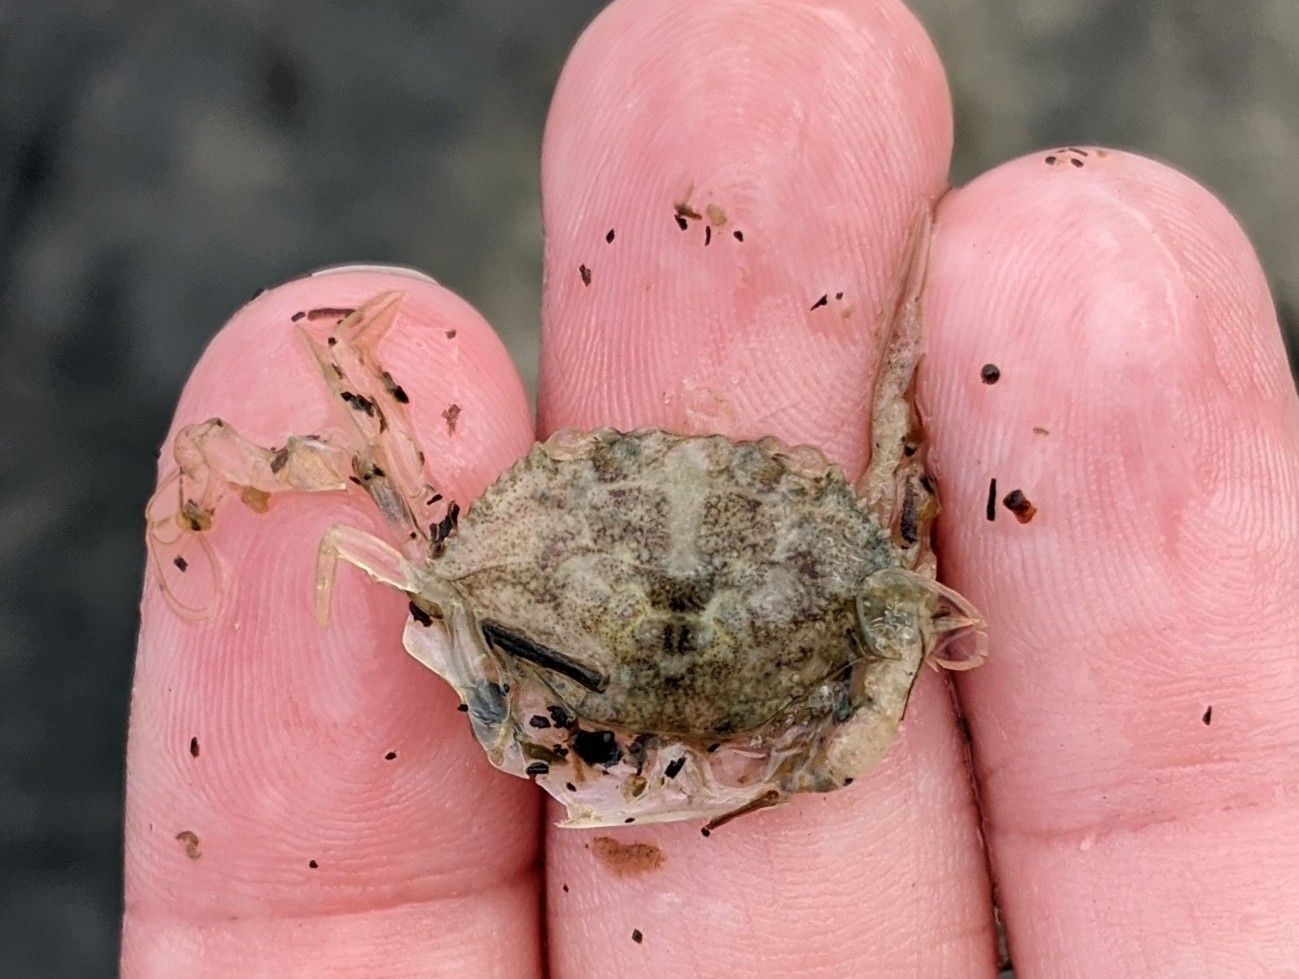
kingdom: Animalia
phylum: Arthropoda
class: Malacostraca
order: Decapoda
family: Portunidae
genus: Callinectes
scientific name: Callinectes sapidus
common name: Blue crab
